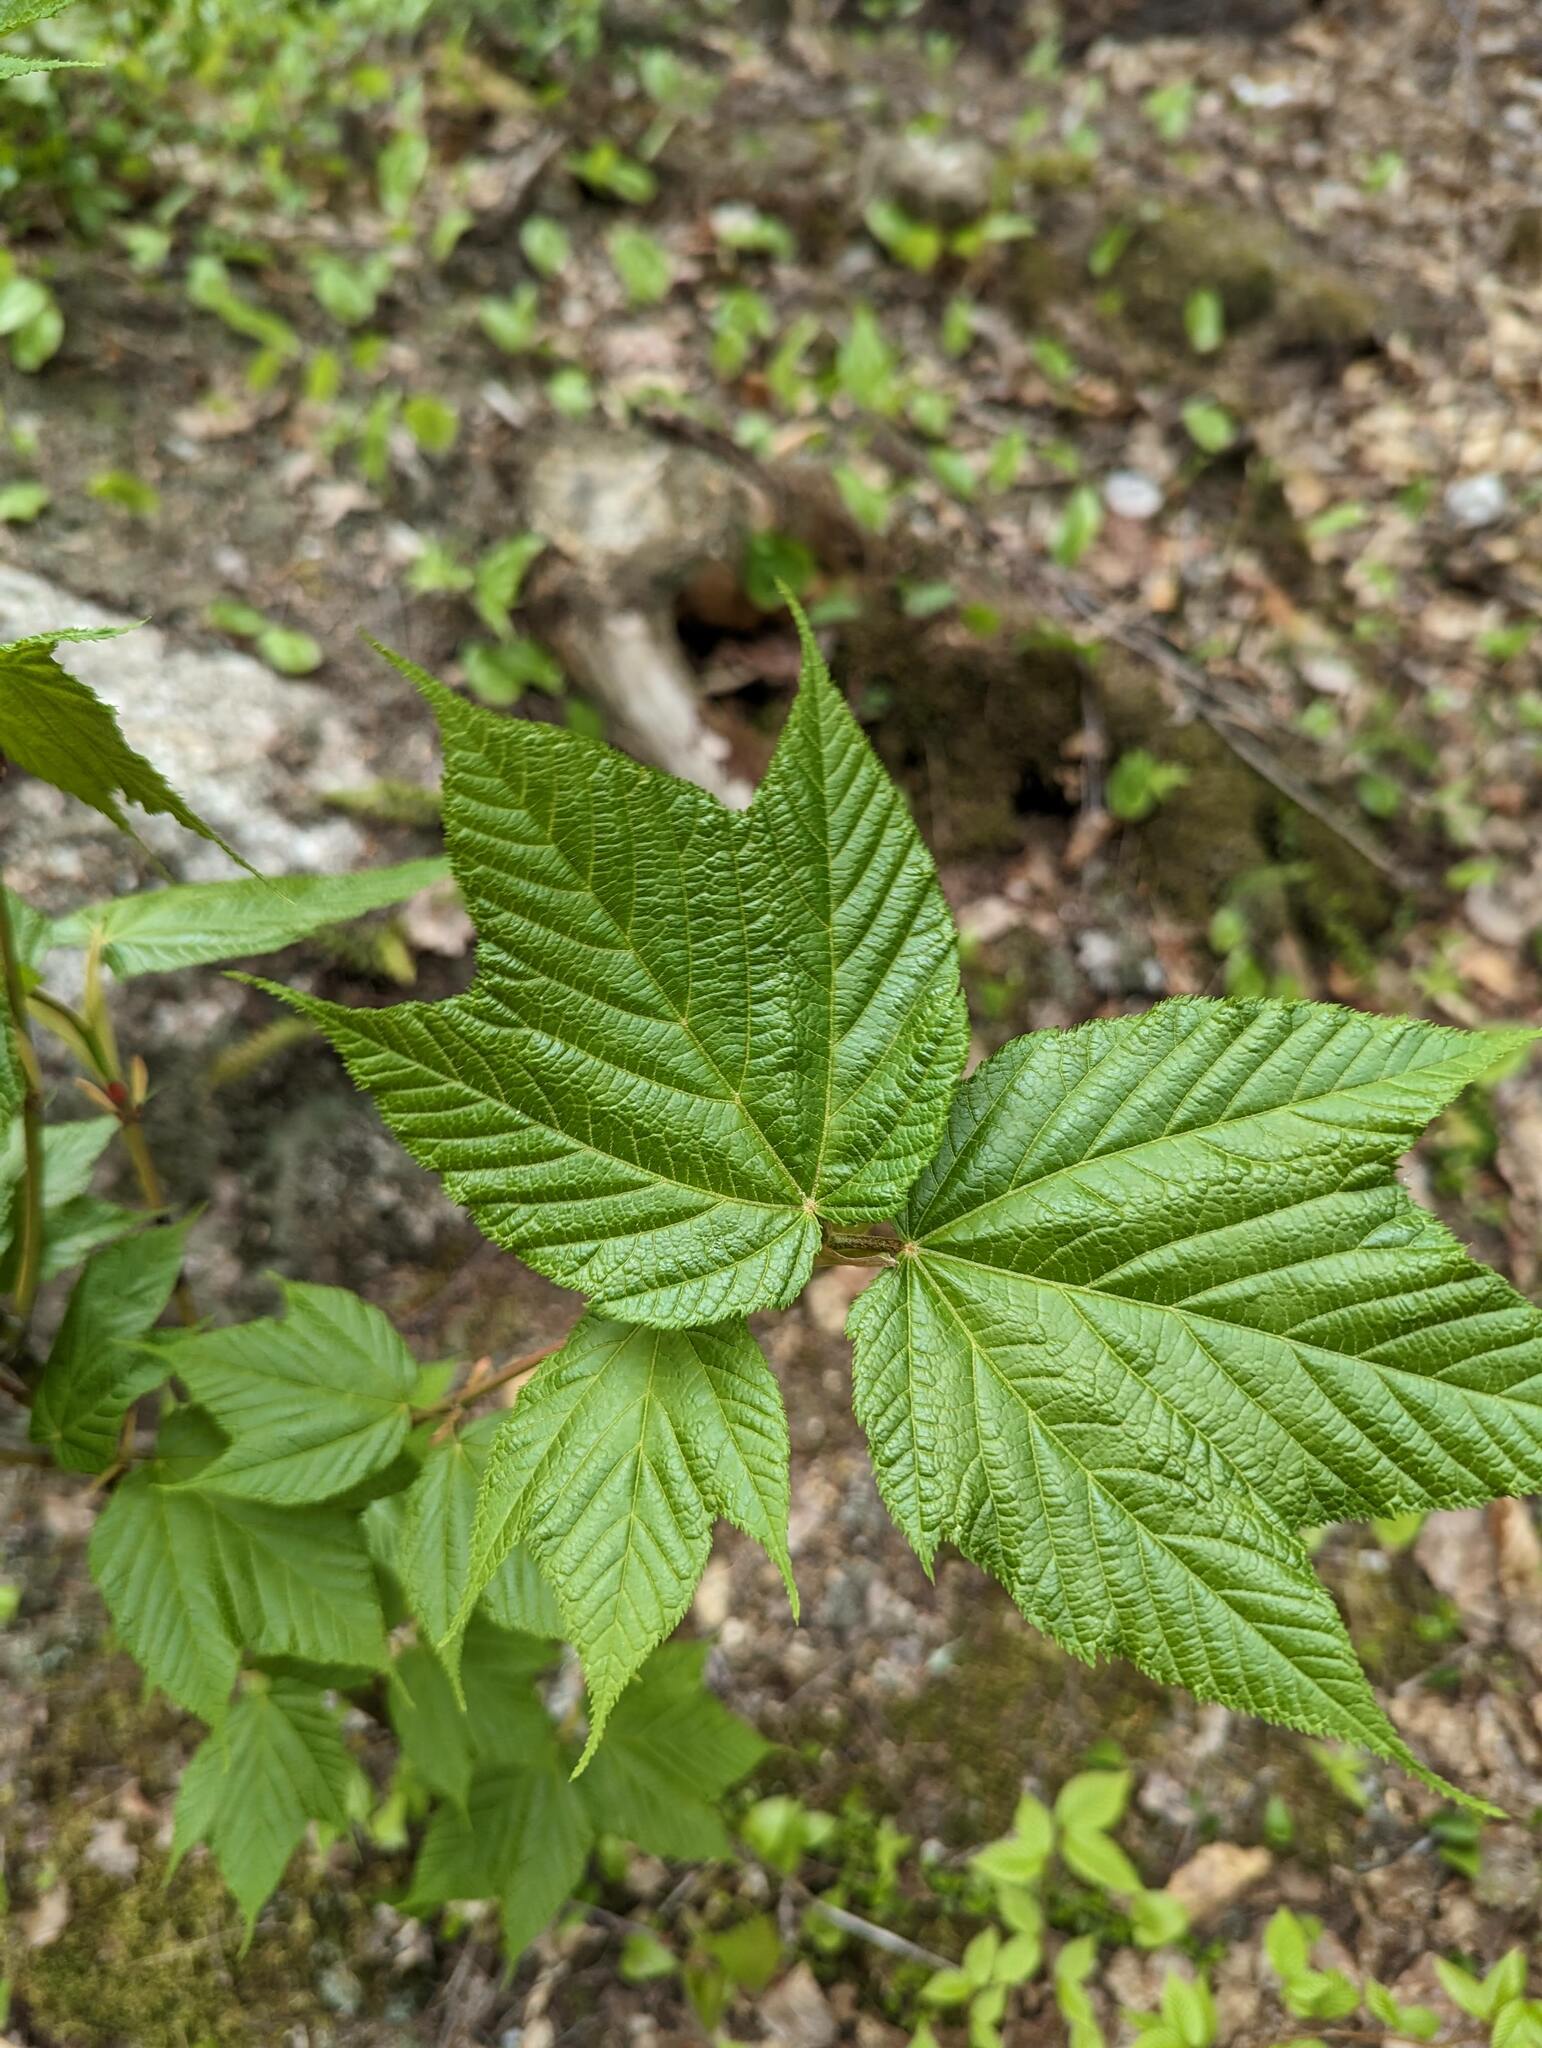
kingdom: Plantae
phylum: Tracheophyta
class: Magnoliopsida
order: Sapindales
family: Sapindaceae
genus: Acer
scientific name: Acer pensylvanicum
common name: Moosewood
